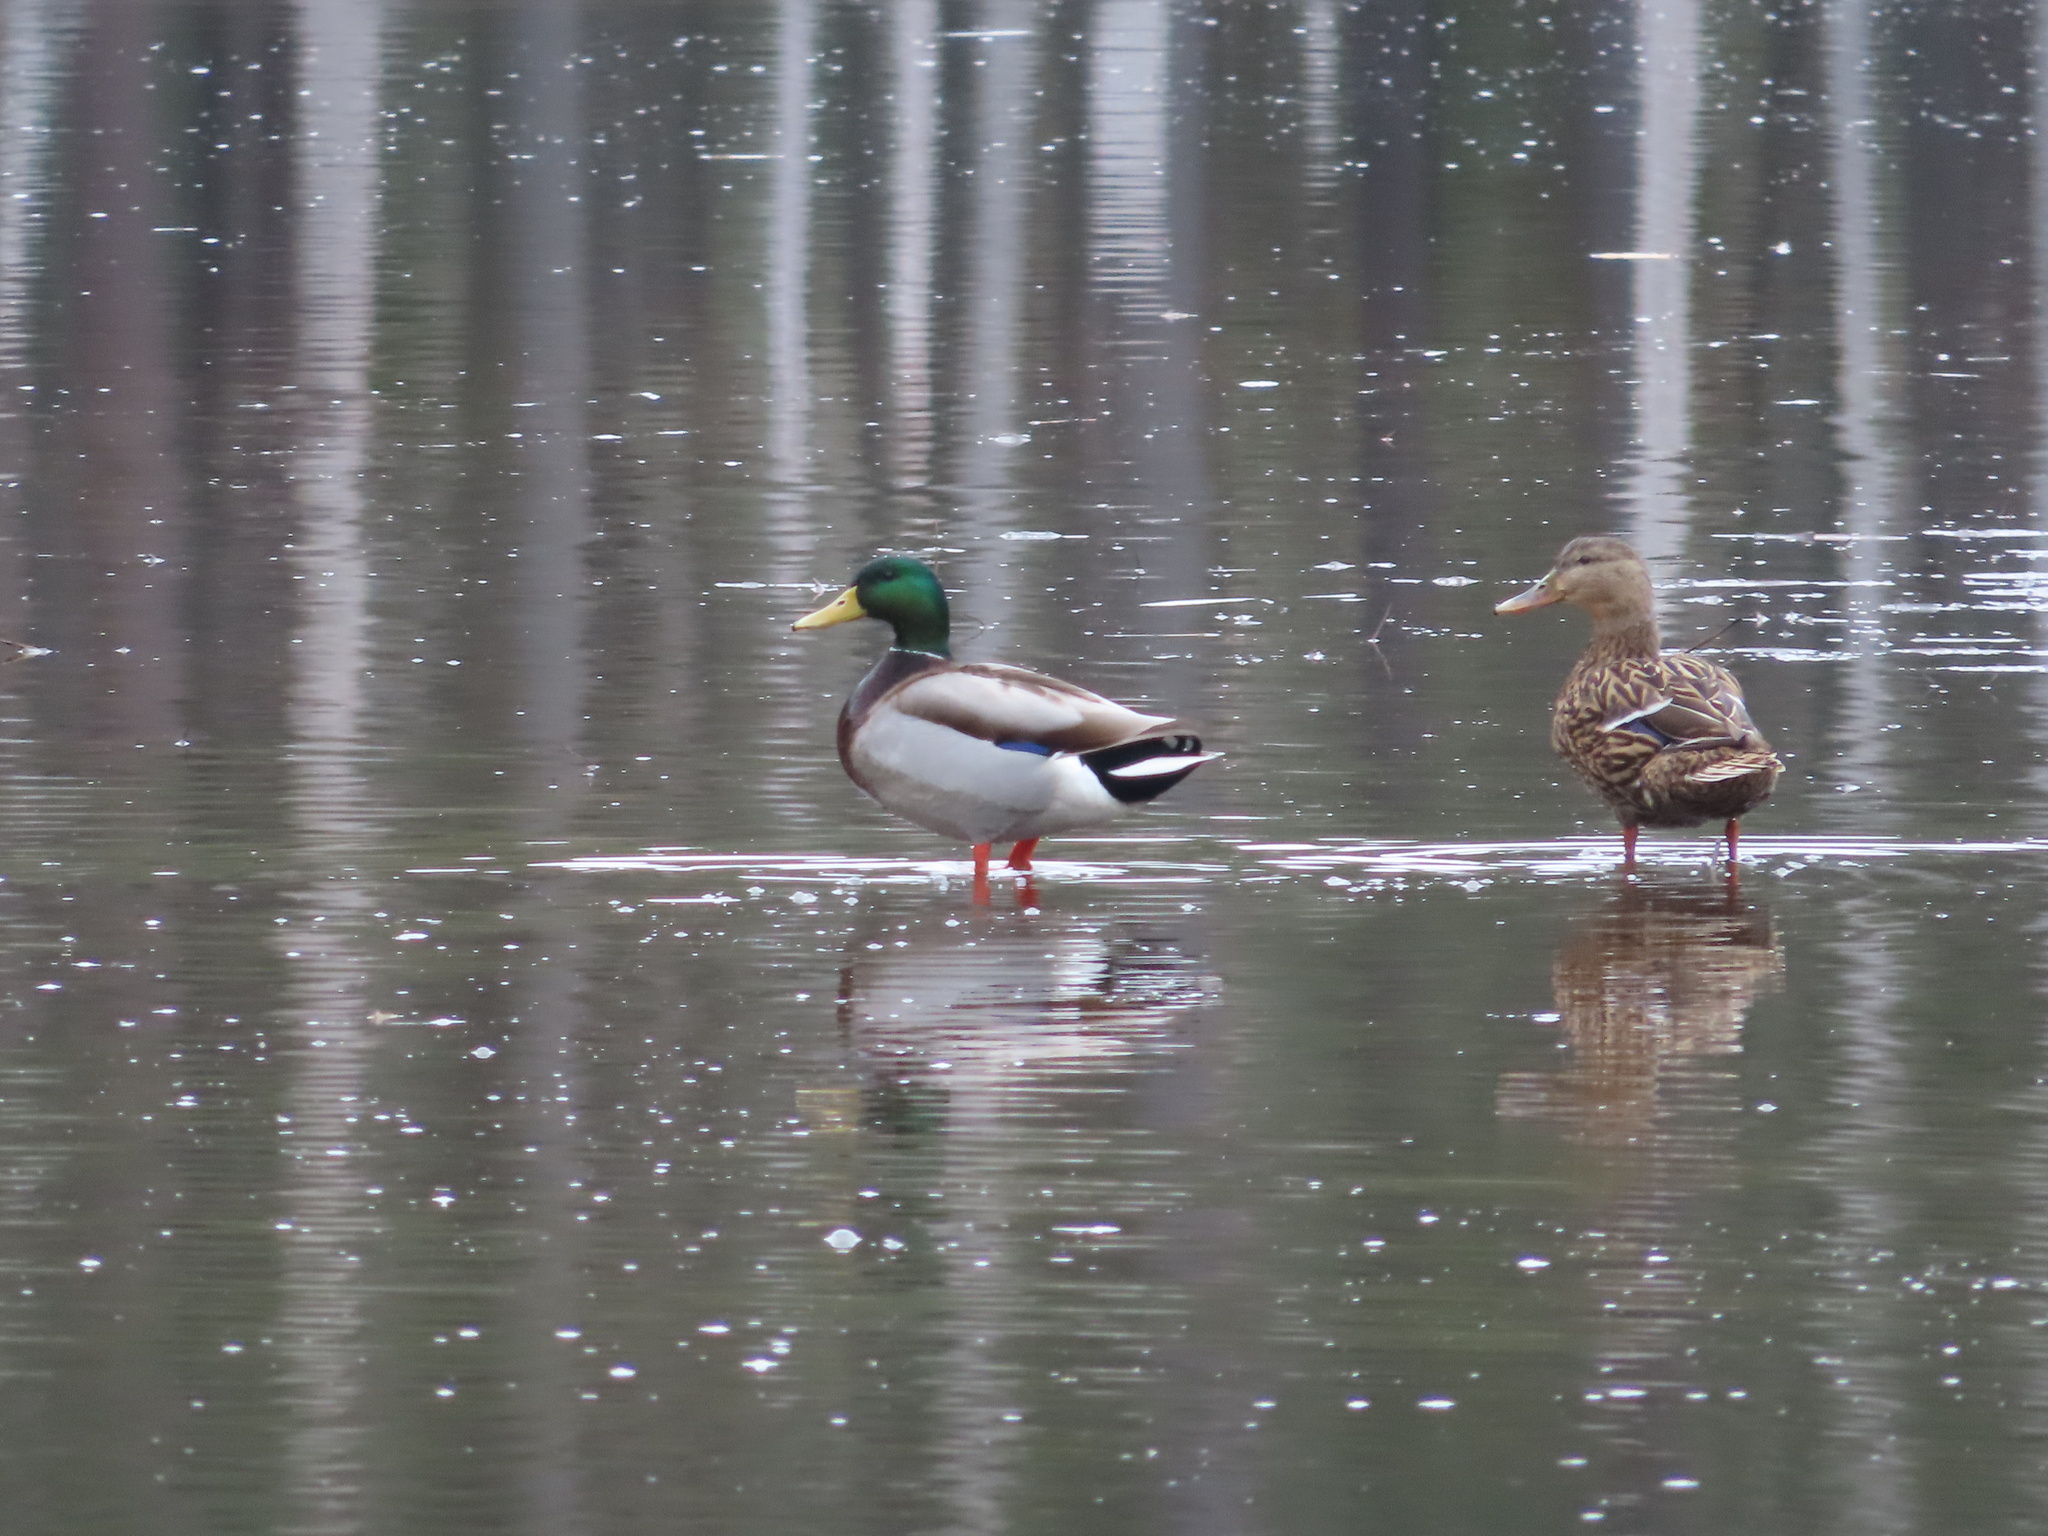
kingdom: Animalia
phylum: Chordata
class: Aves
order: Anseriformes
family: Anatidae
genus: Anas
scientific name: Anas platyrhynchos
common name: Mallard
